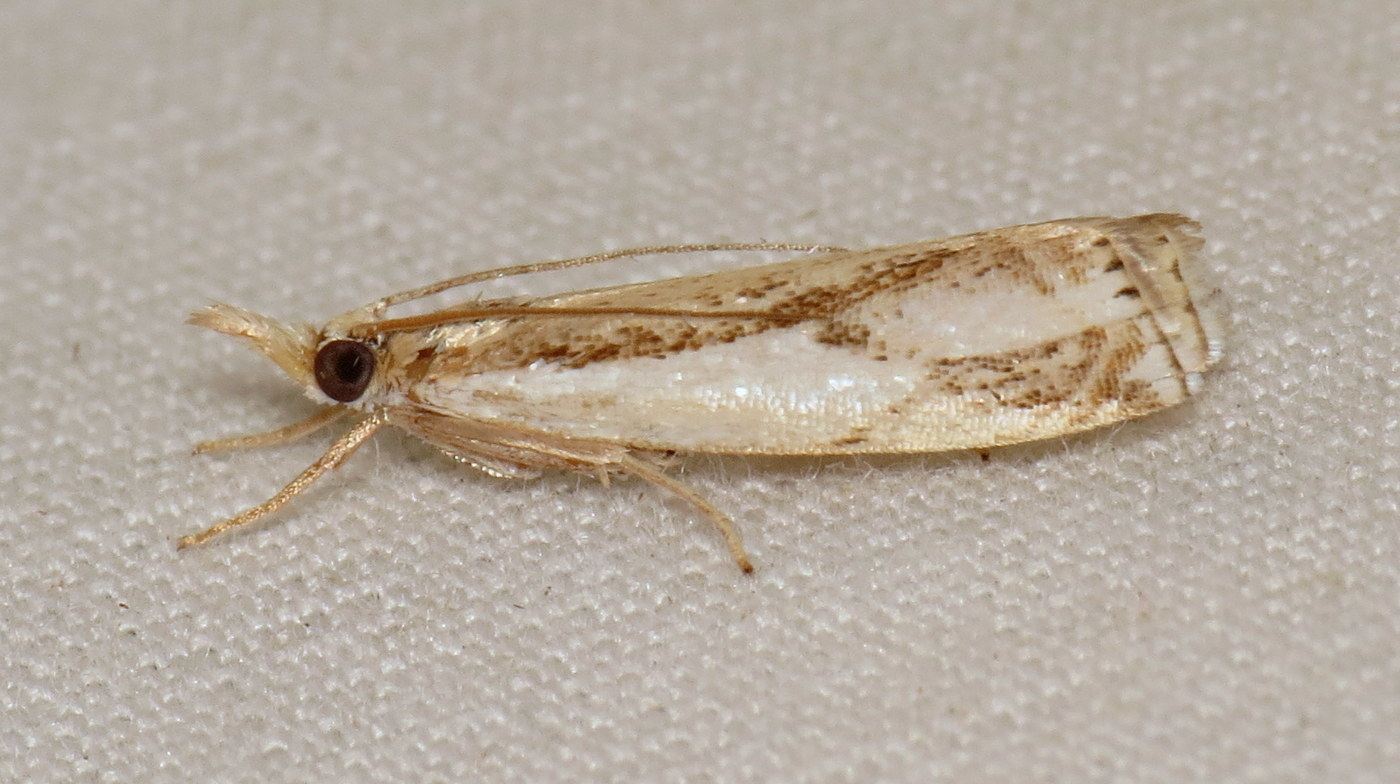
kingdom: Animalia
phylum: Arthropoda
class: Insecta
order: Lepidoptera
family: Crambidae
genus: Crambus
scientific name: Crambus agitatellus
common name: Double-banded grass-veneer
